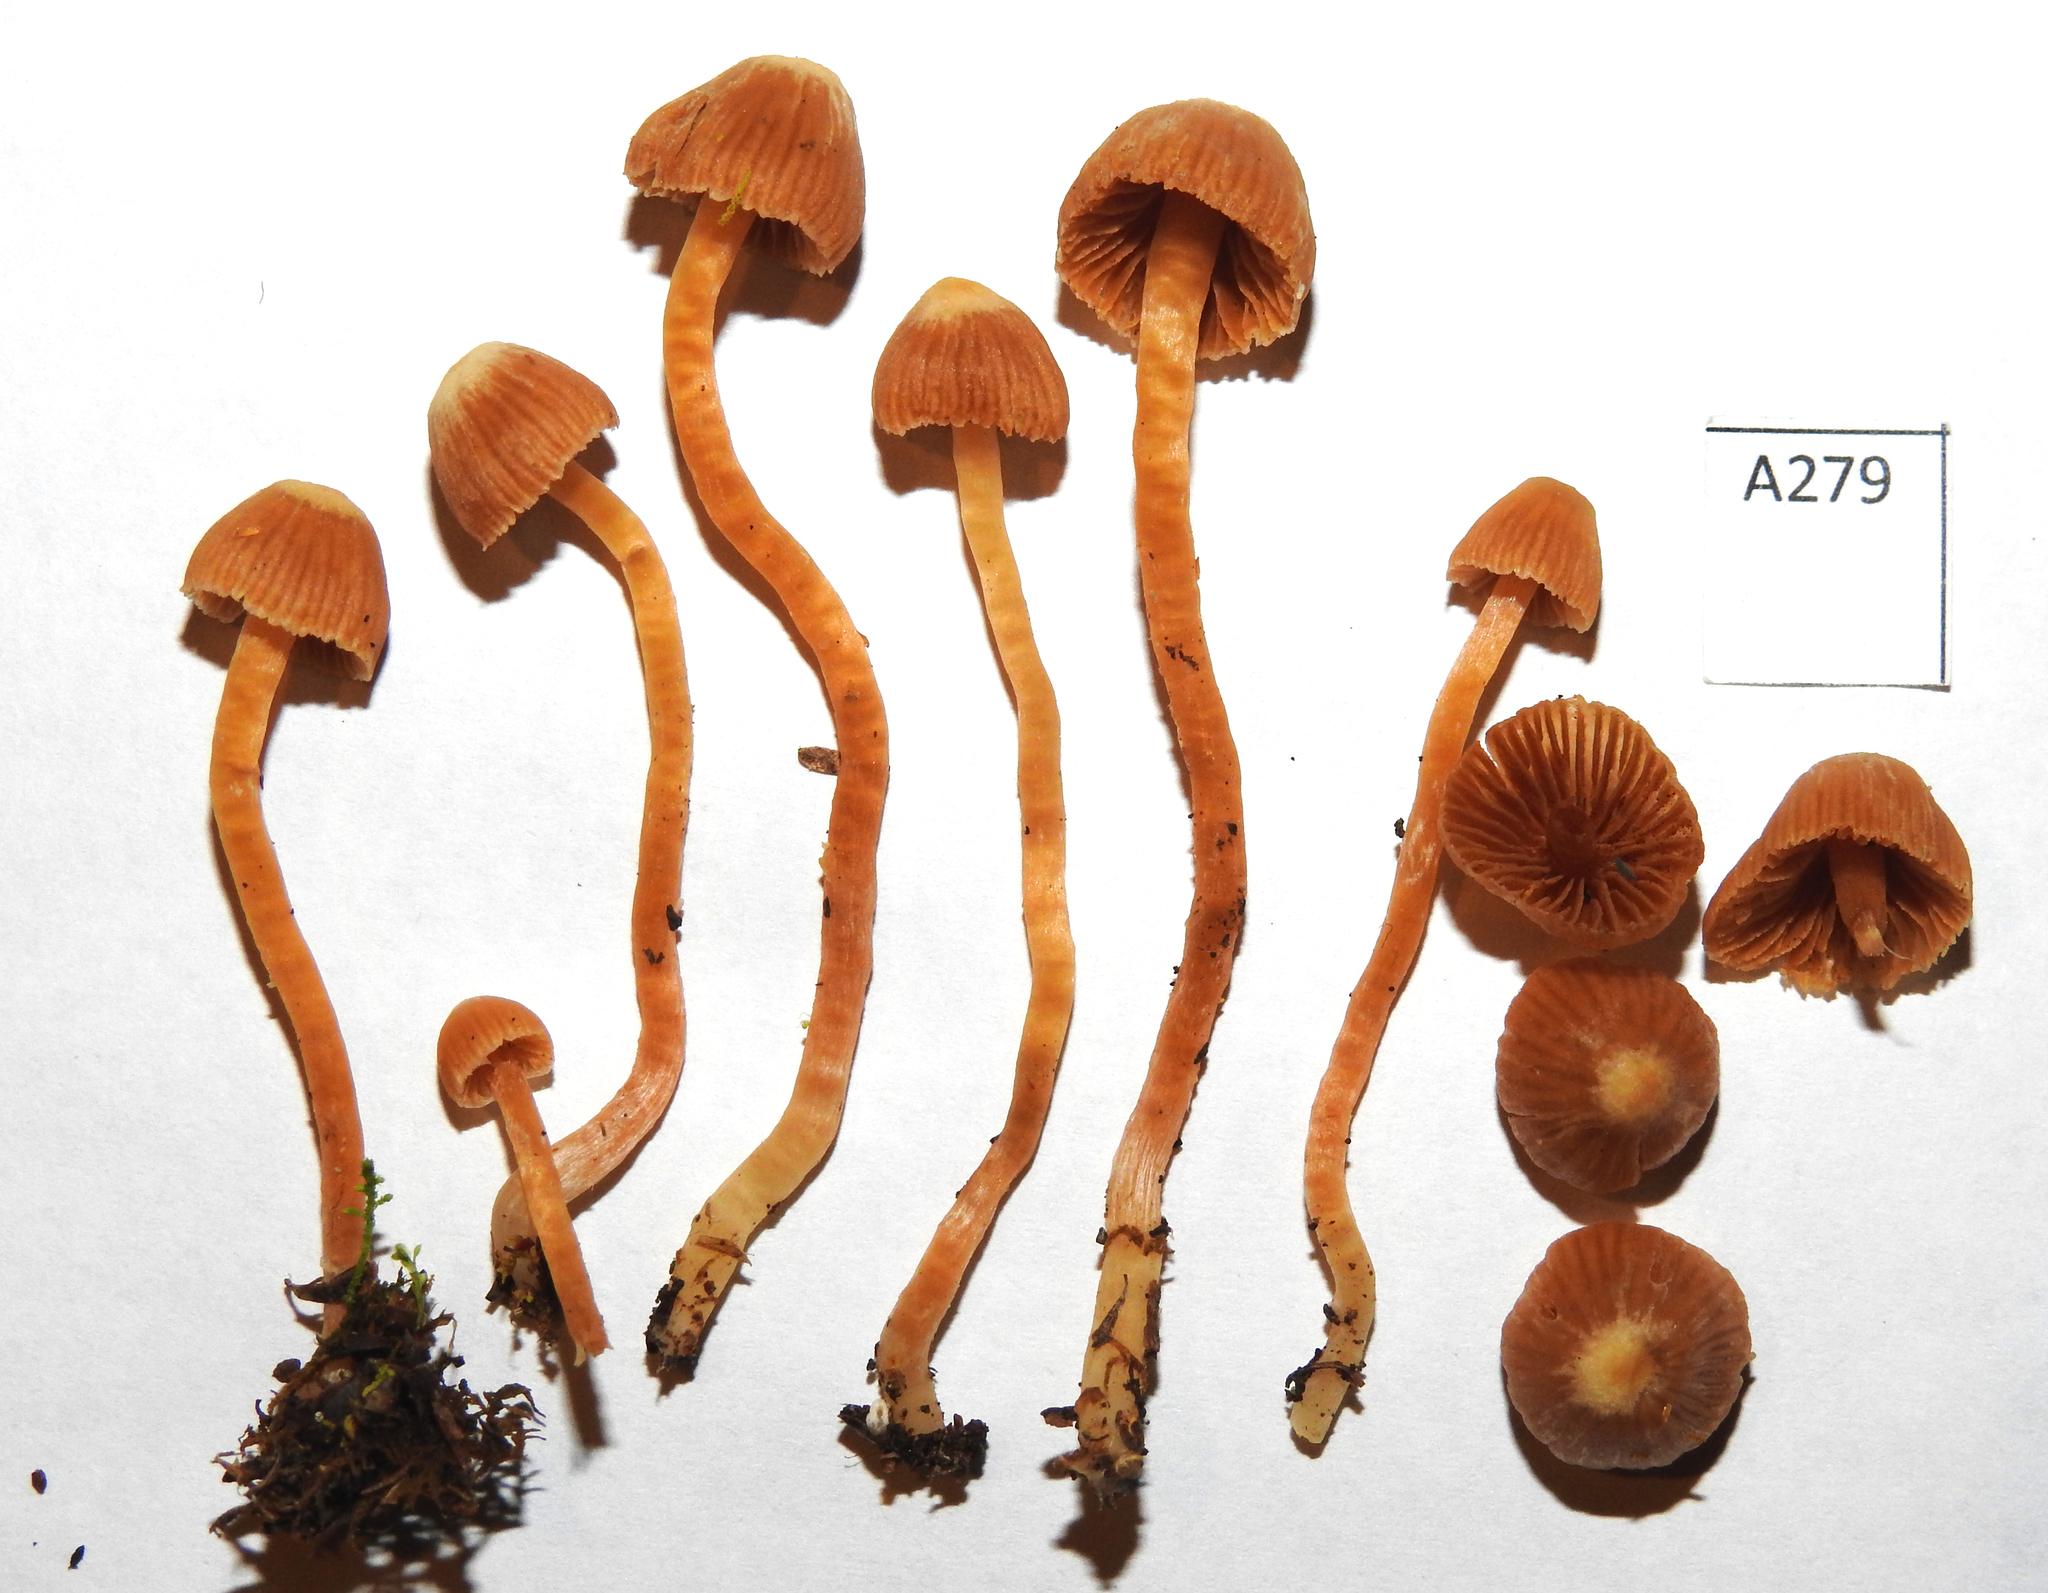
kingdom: Fungi
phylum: Basidiomycota
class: Agaricomycetes
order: Agaricales
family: Cortinariaceae
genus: Cortinarius
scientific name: Cortinarius
